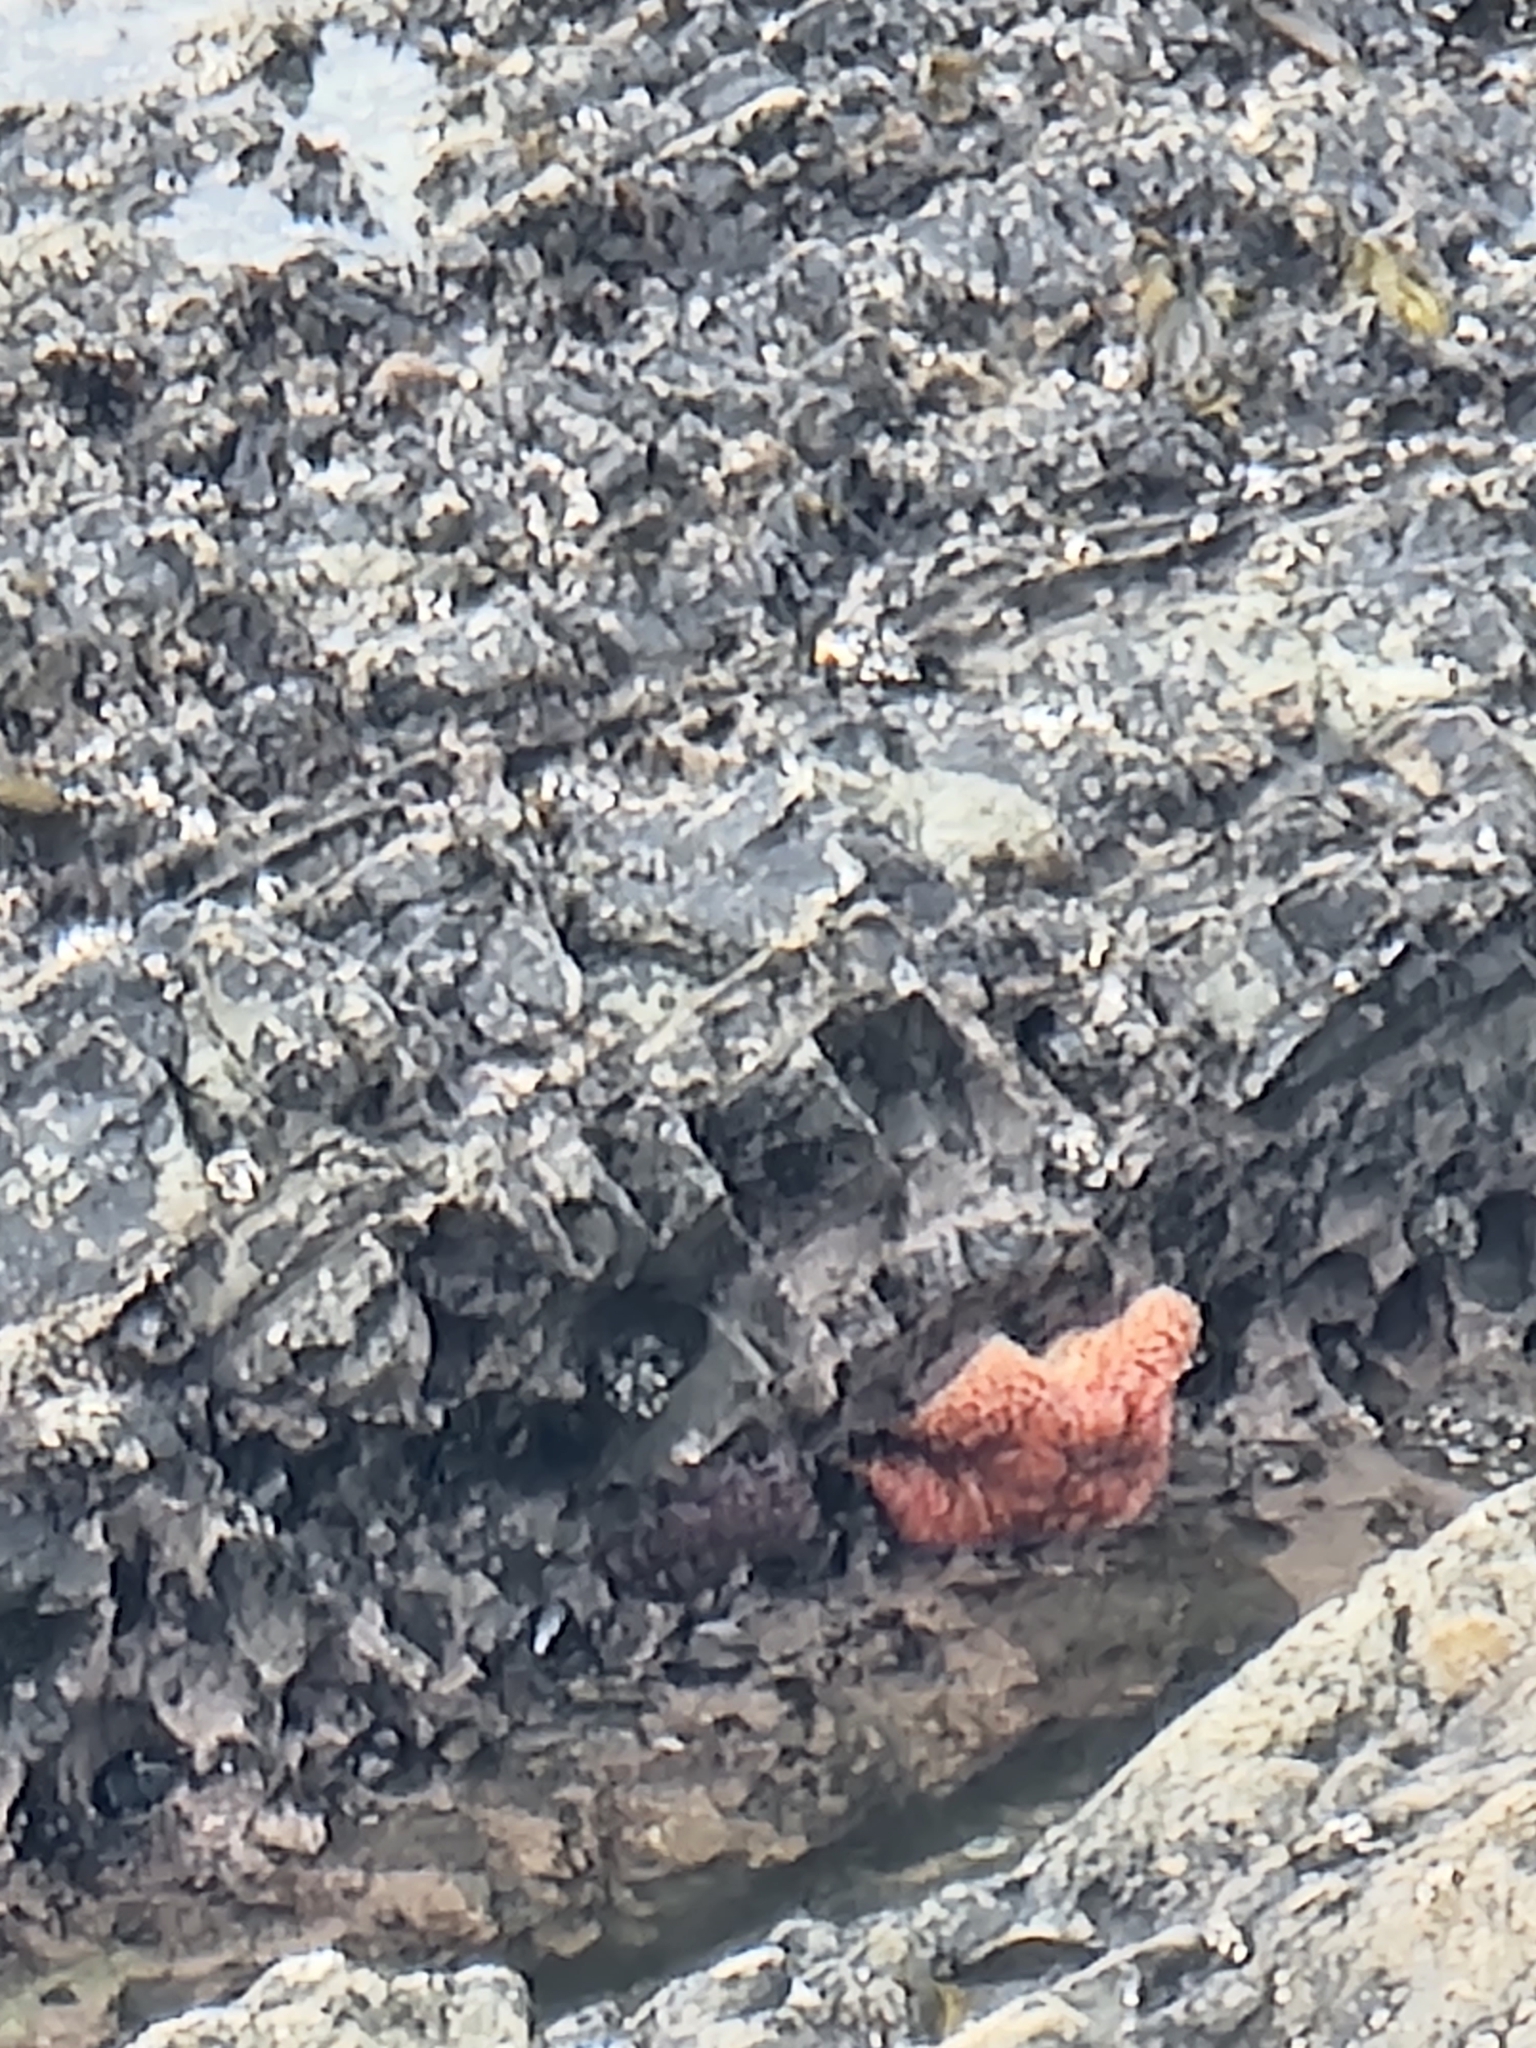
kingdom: Animalia
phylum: Echinodermata
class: Asteroidea
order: Forcipulatida
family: Asteriidae
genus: Pisaster
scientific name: Pisaster ochraceus
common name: Ochre stars
